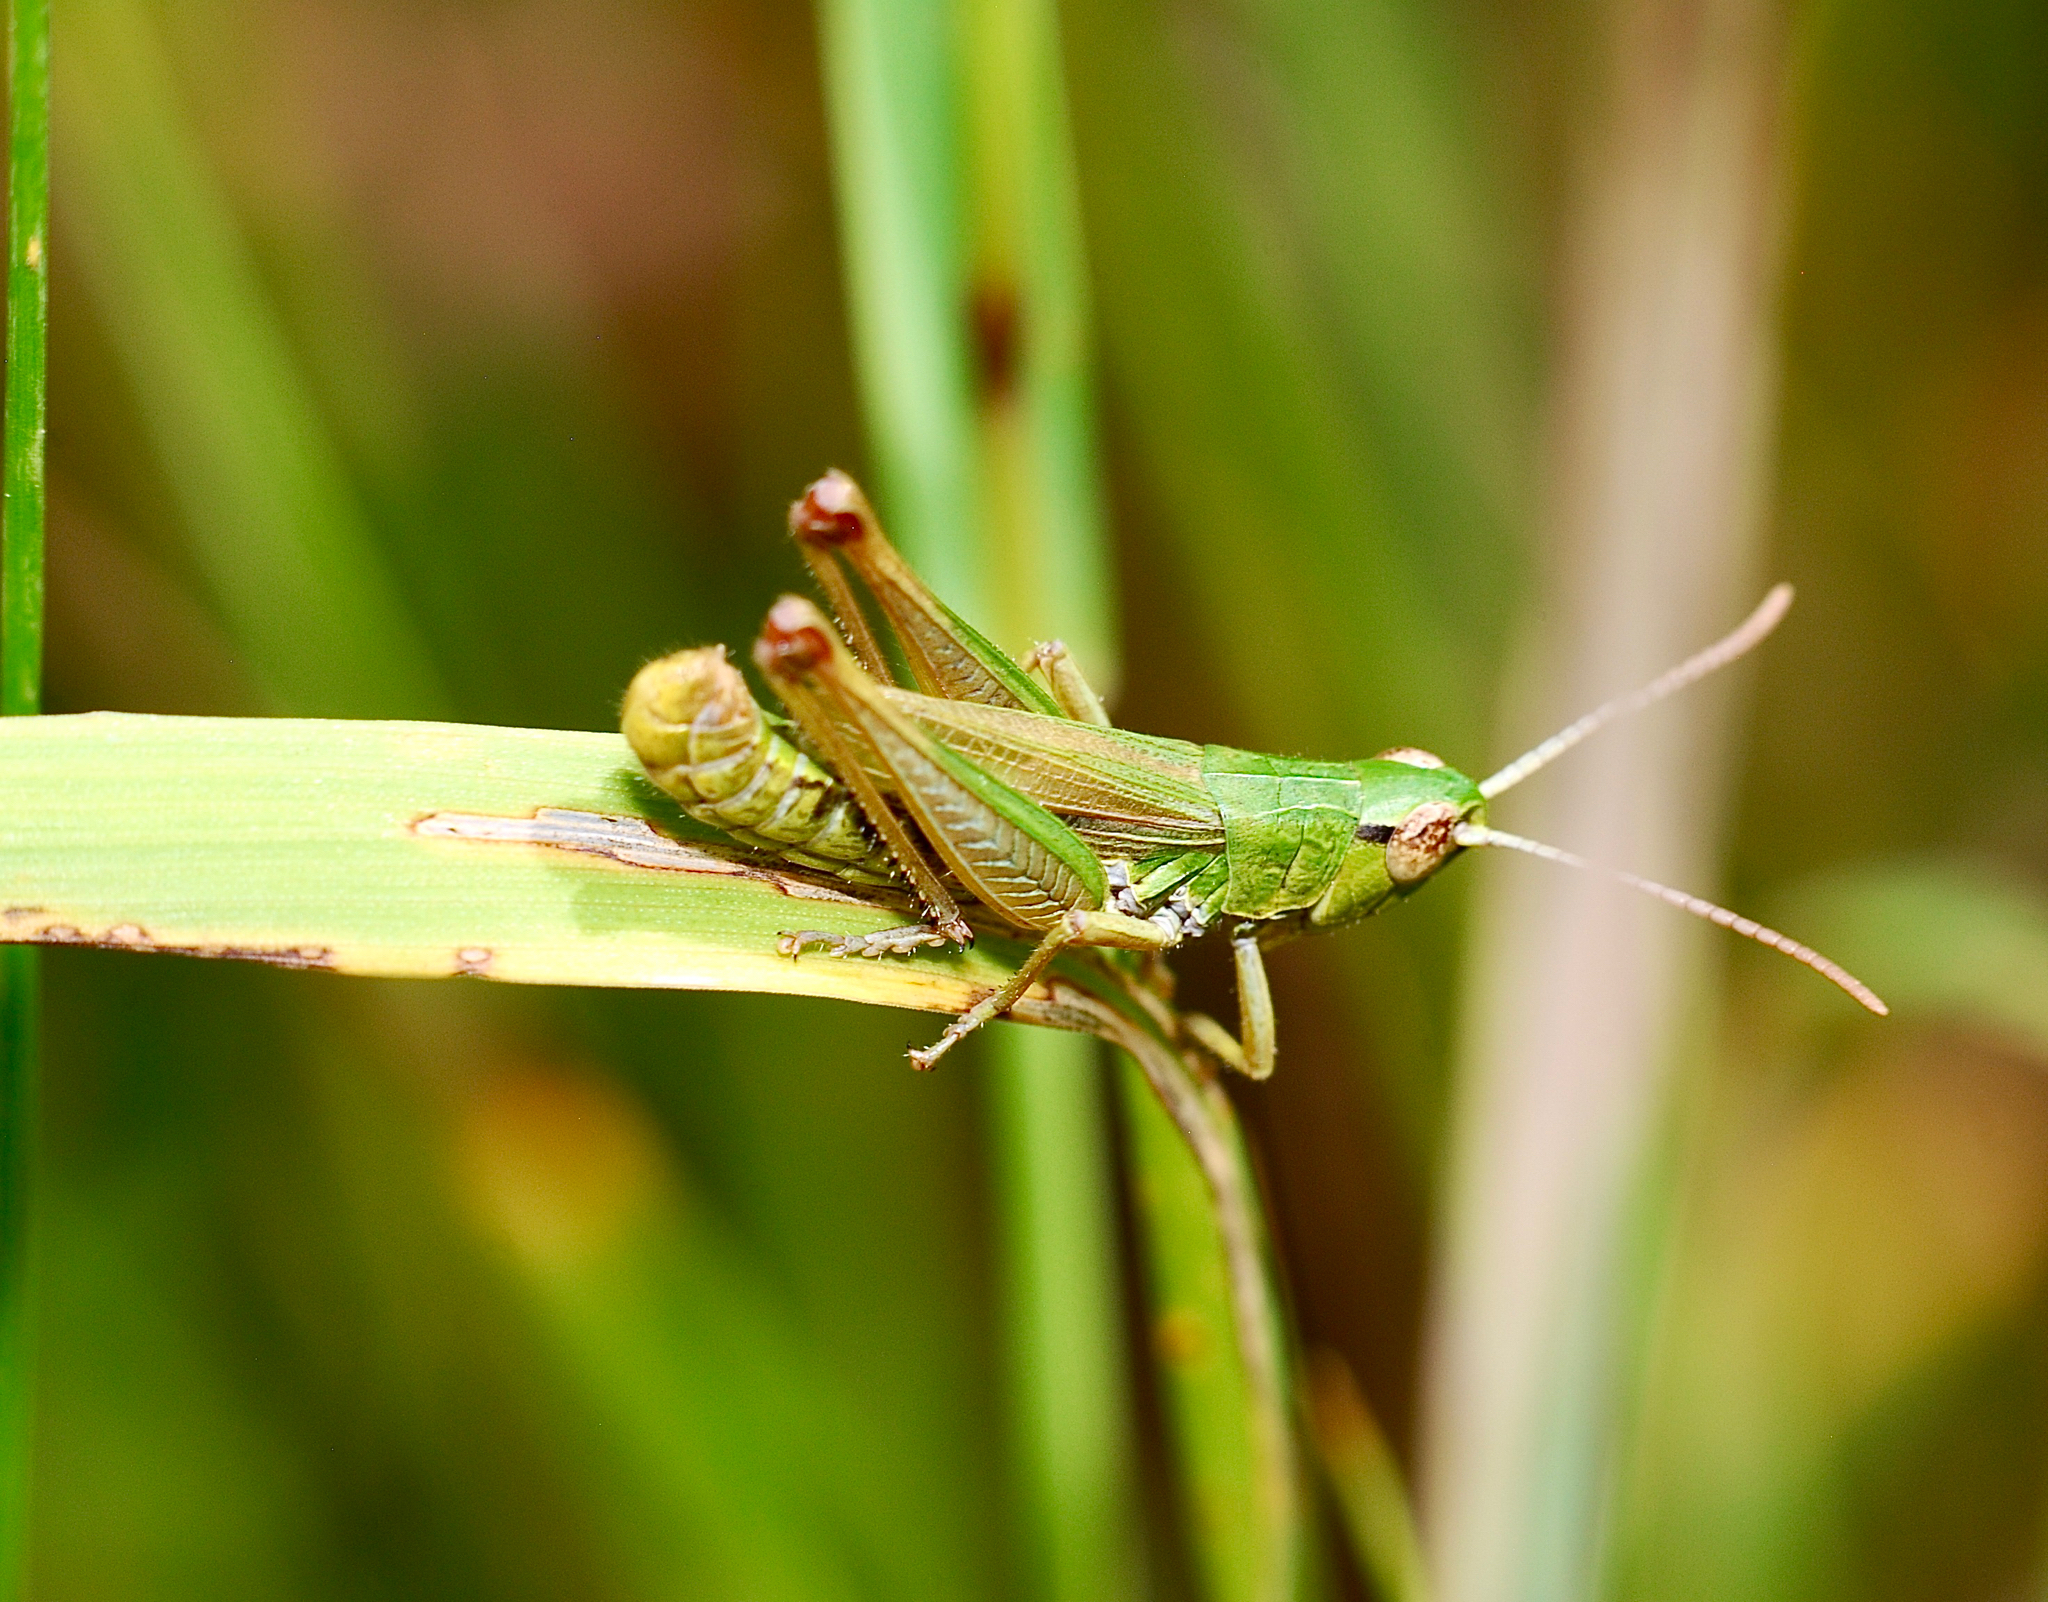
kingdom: Animalia
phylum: Arthropoda
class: Insecta
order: Orthoptera
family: Acrididae
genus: Pseudochorthippus
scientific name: Pseudochorthippus parallelus
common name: Meadow grasshopper
